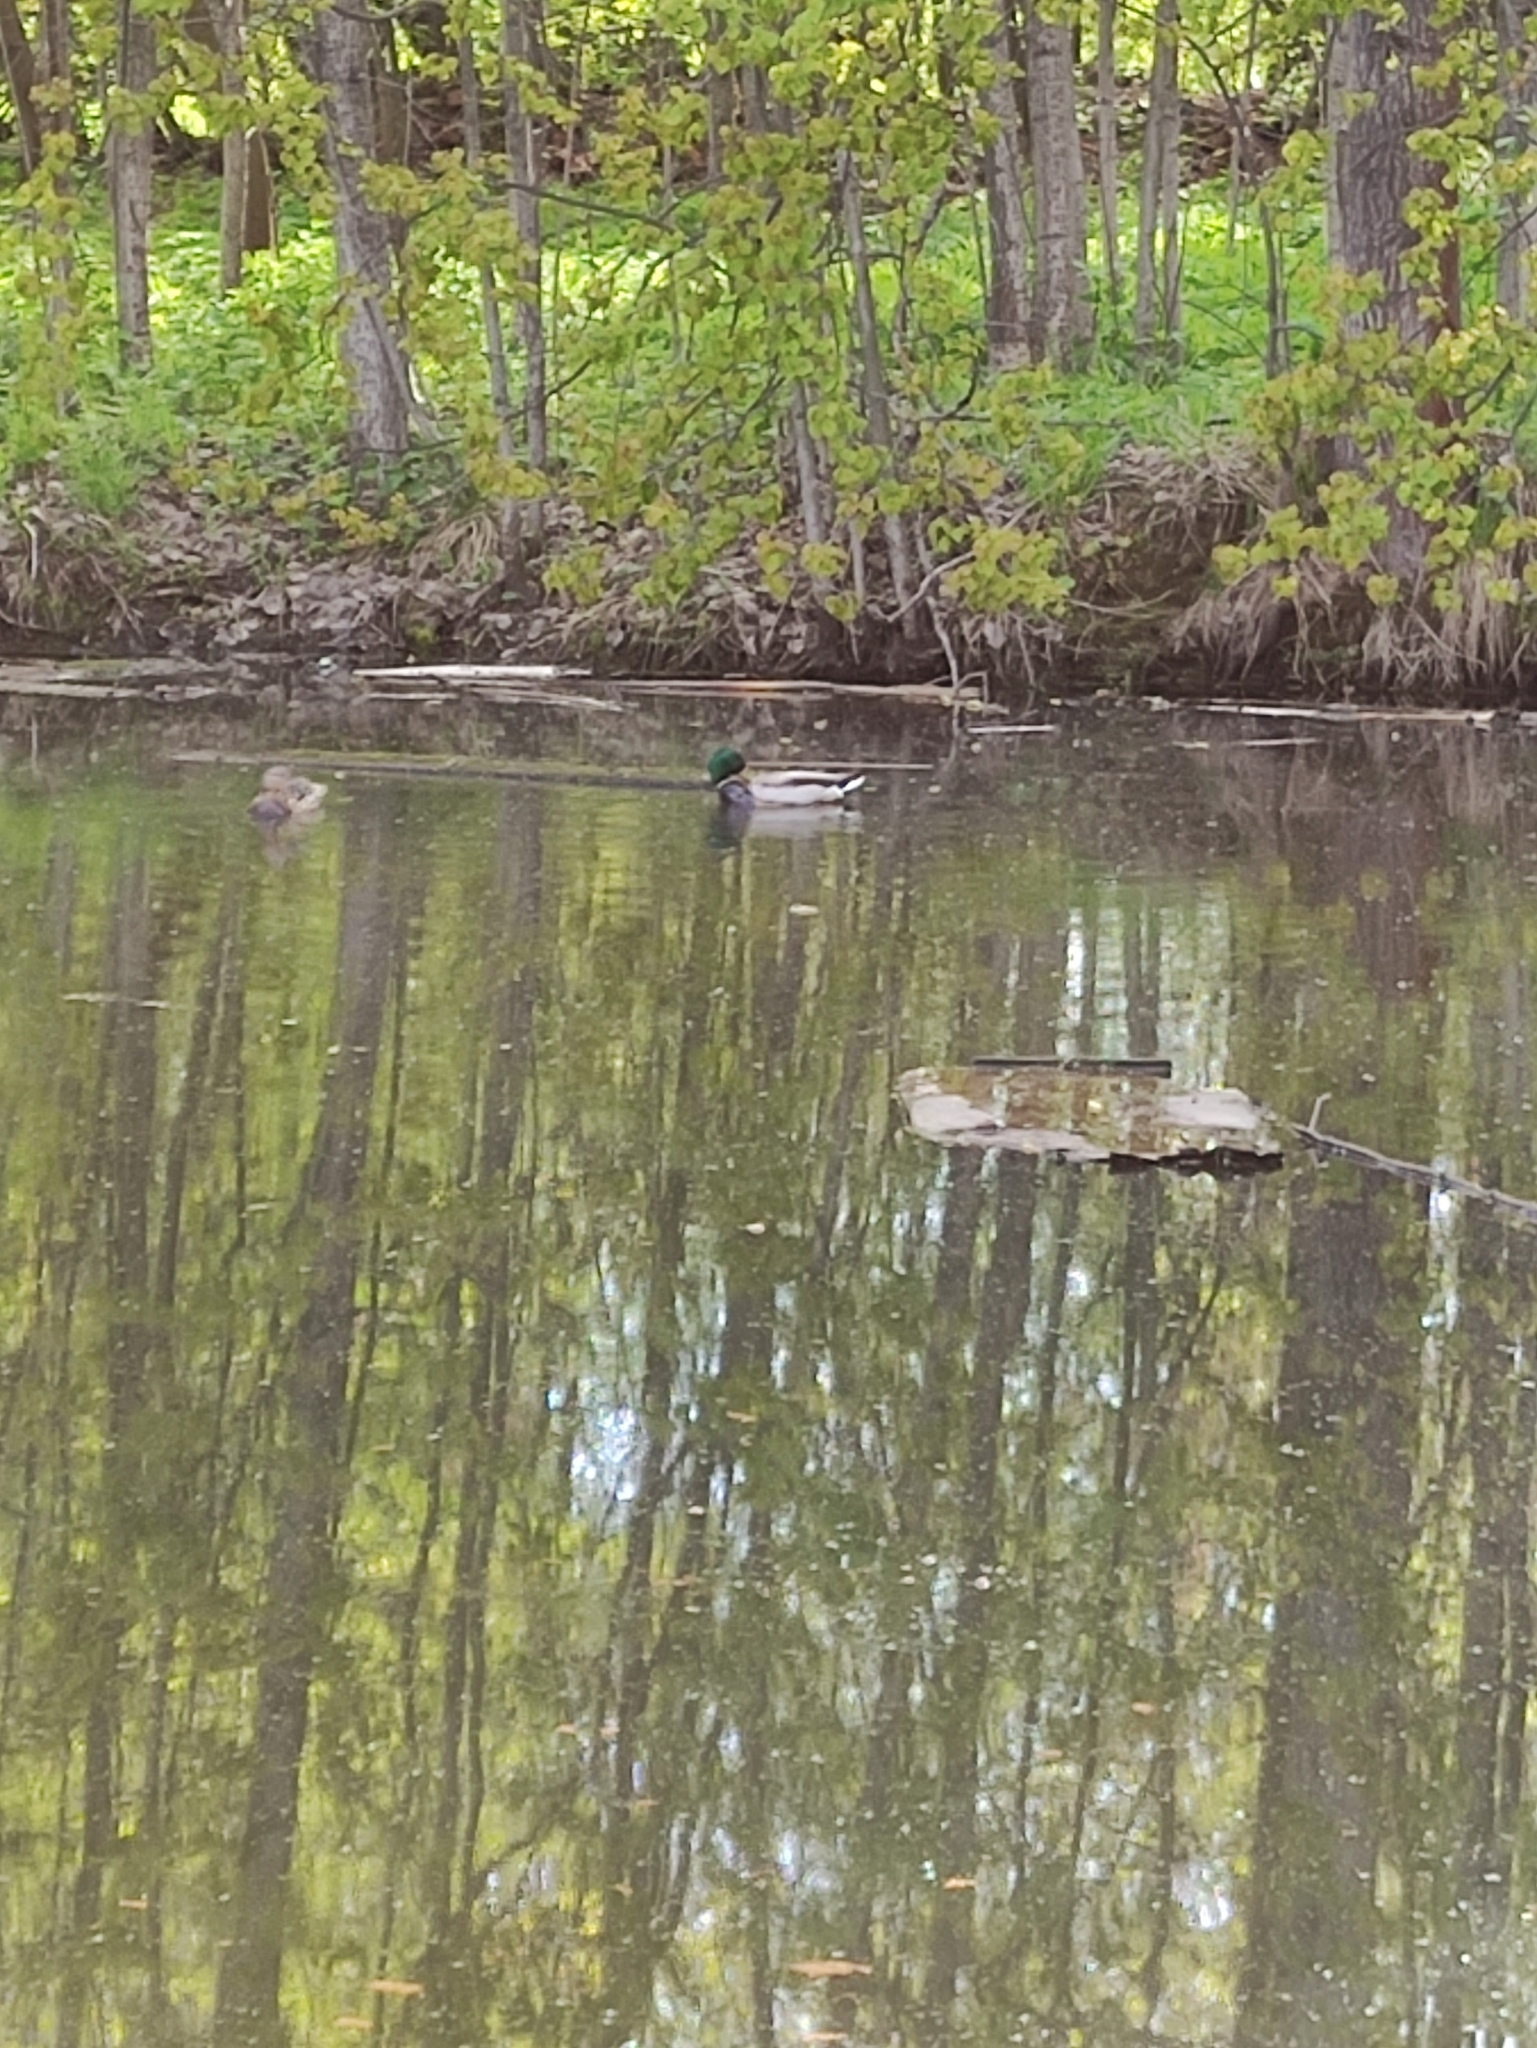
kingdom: Animalia
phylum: Chordata
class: Aves
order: Anseriformes
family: Anatidae
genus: Anas
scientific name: Anas platyrhynchos
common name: Mallard
